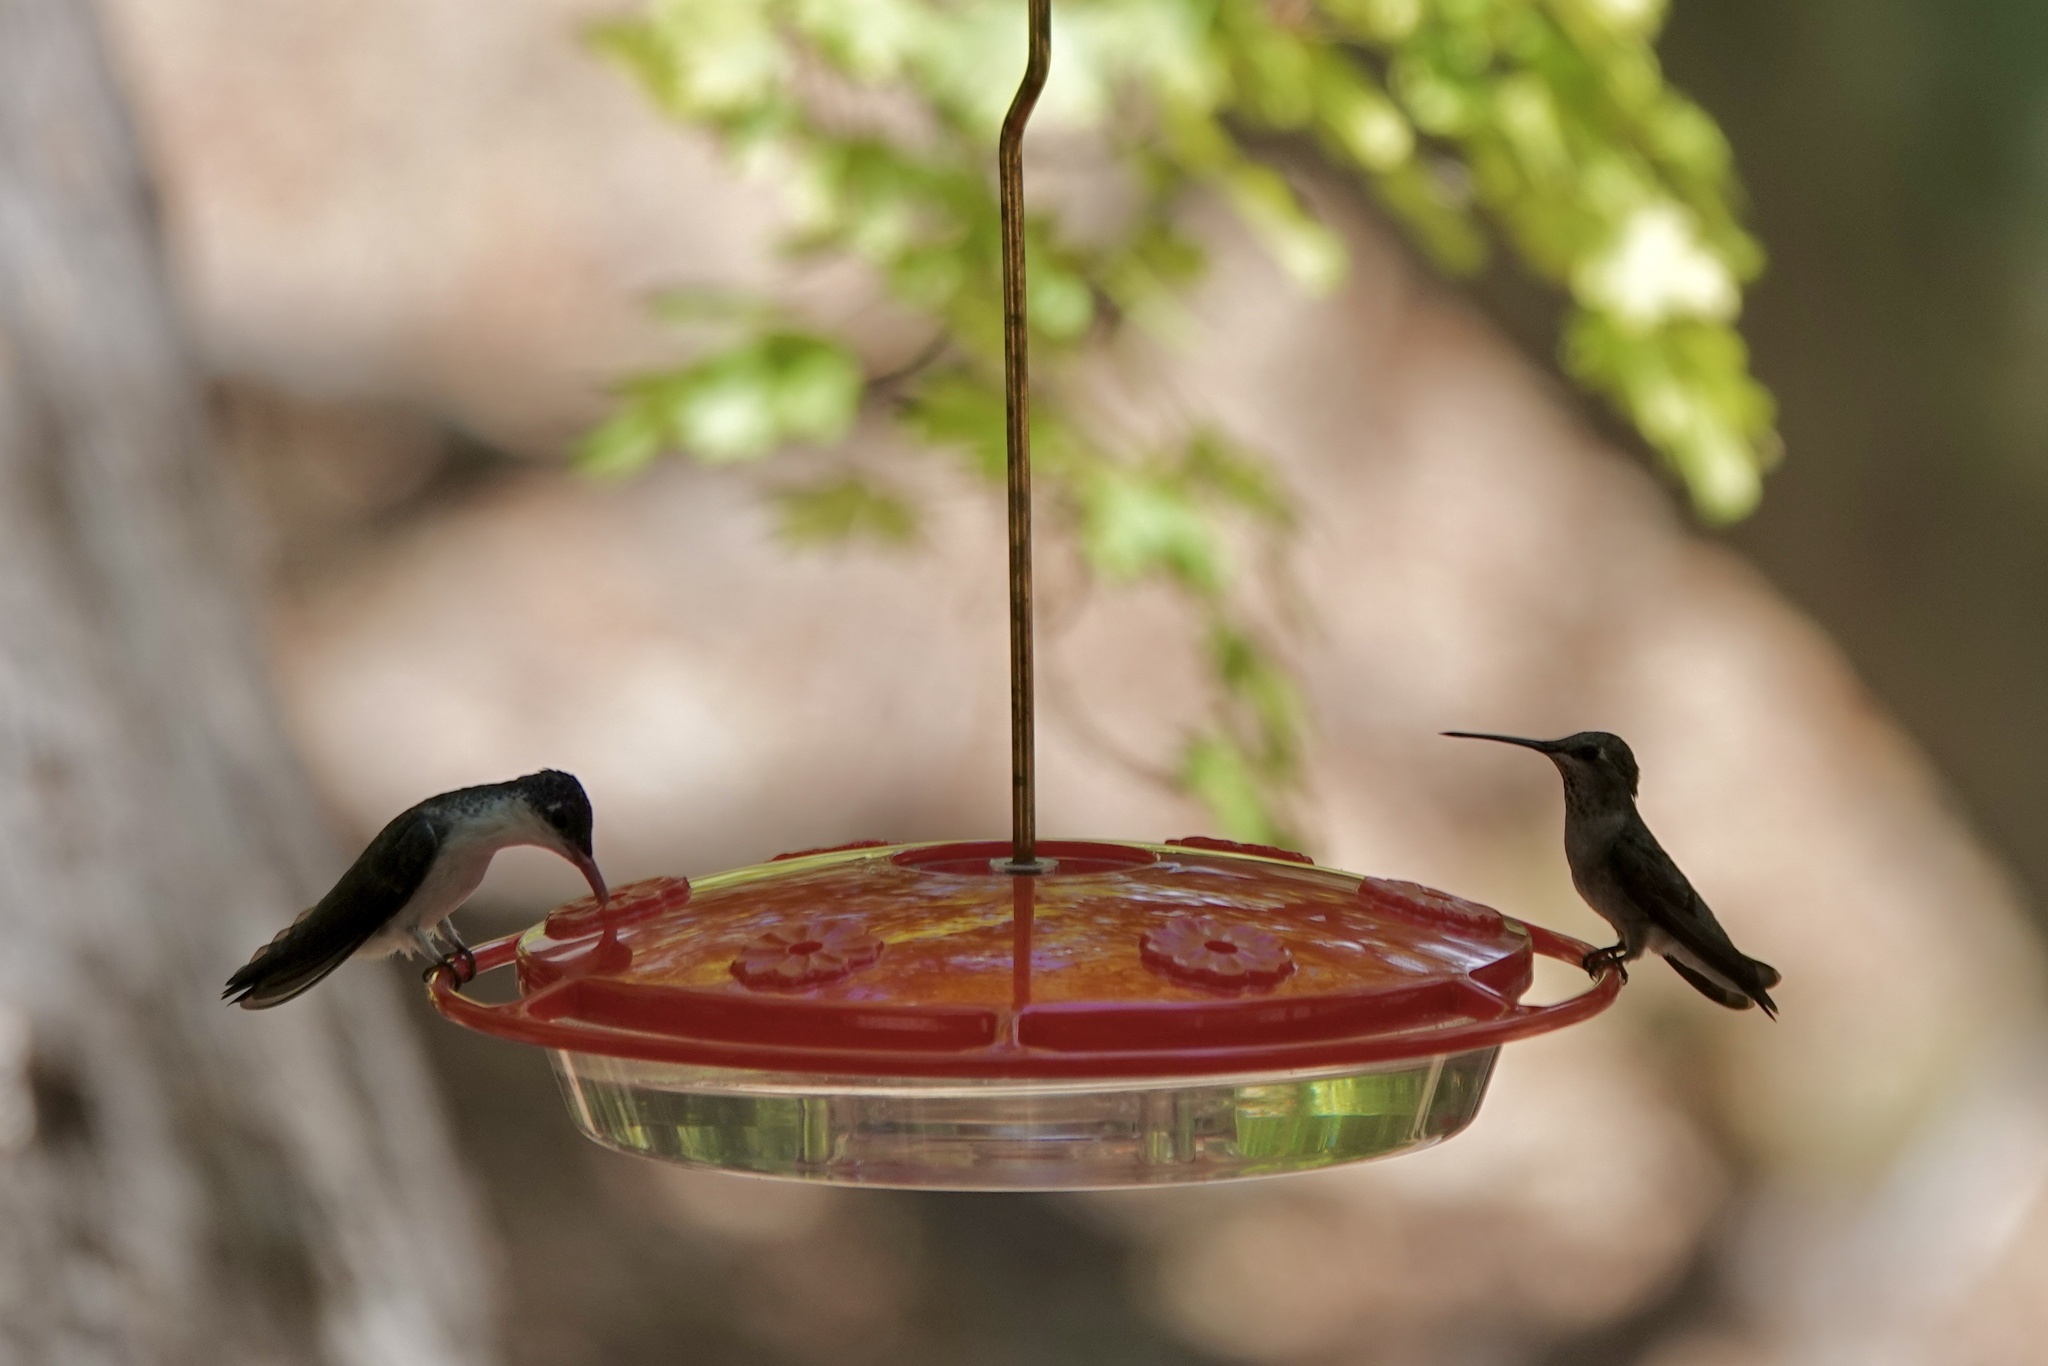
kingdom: Animalia
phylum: Chordata
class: Aves
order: Apodiformes
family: Trochilidae
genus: Archilochus
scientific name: Archilochus alexandri
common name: Black-chinned hummingbird
